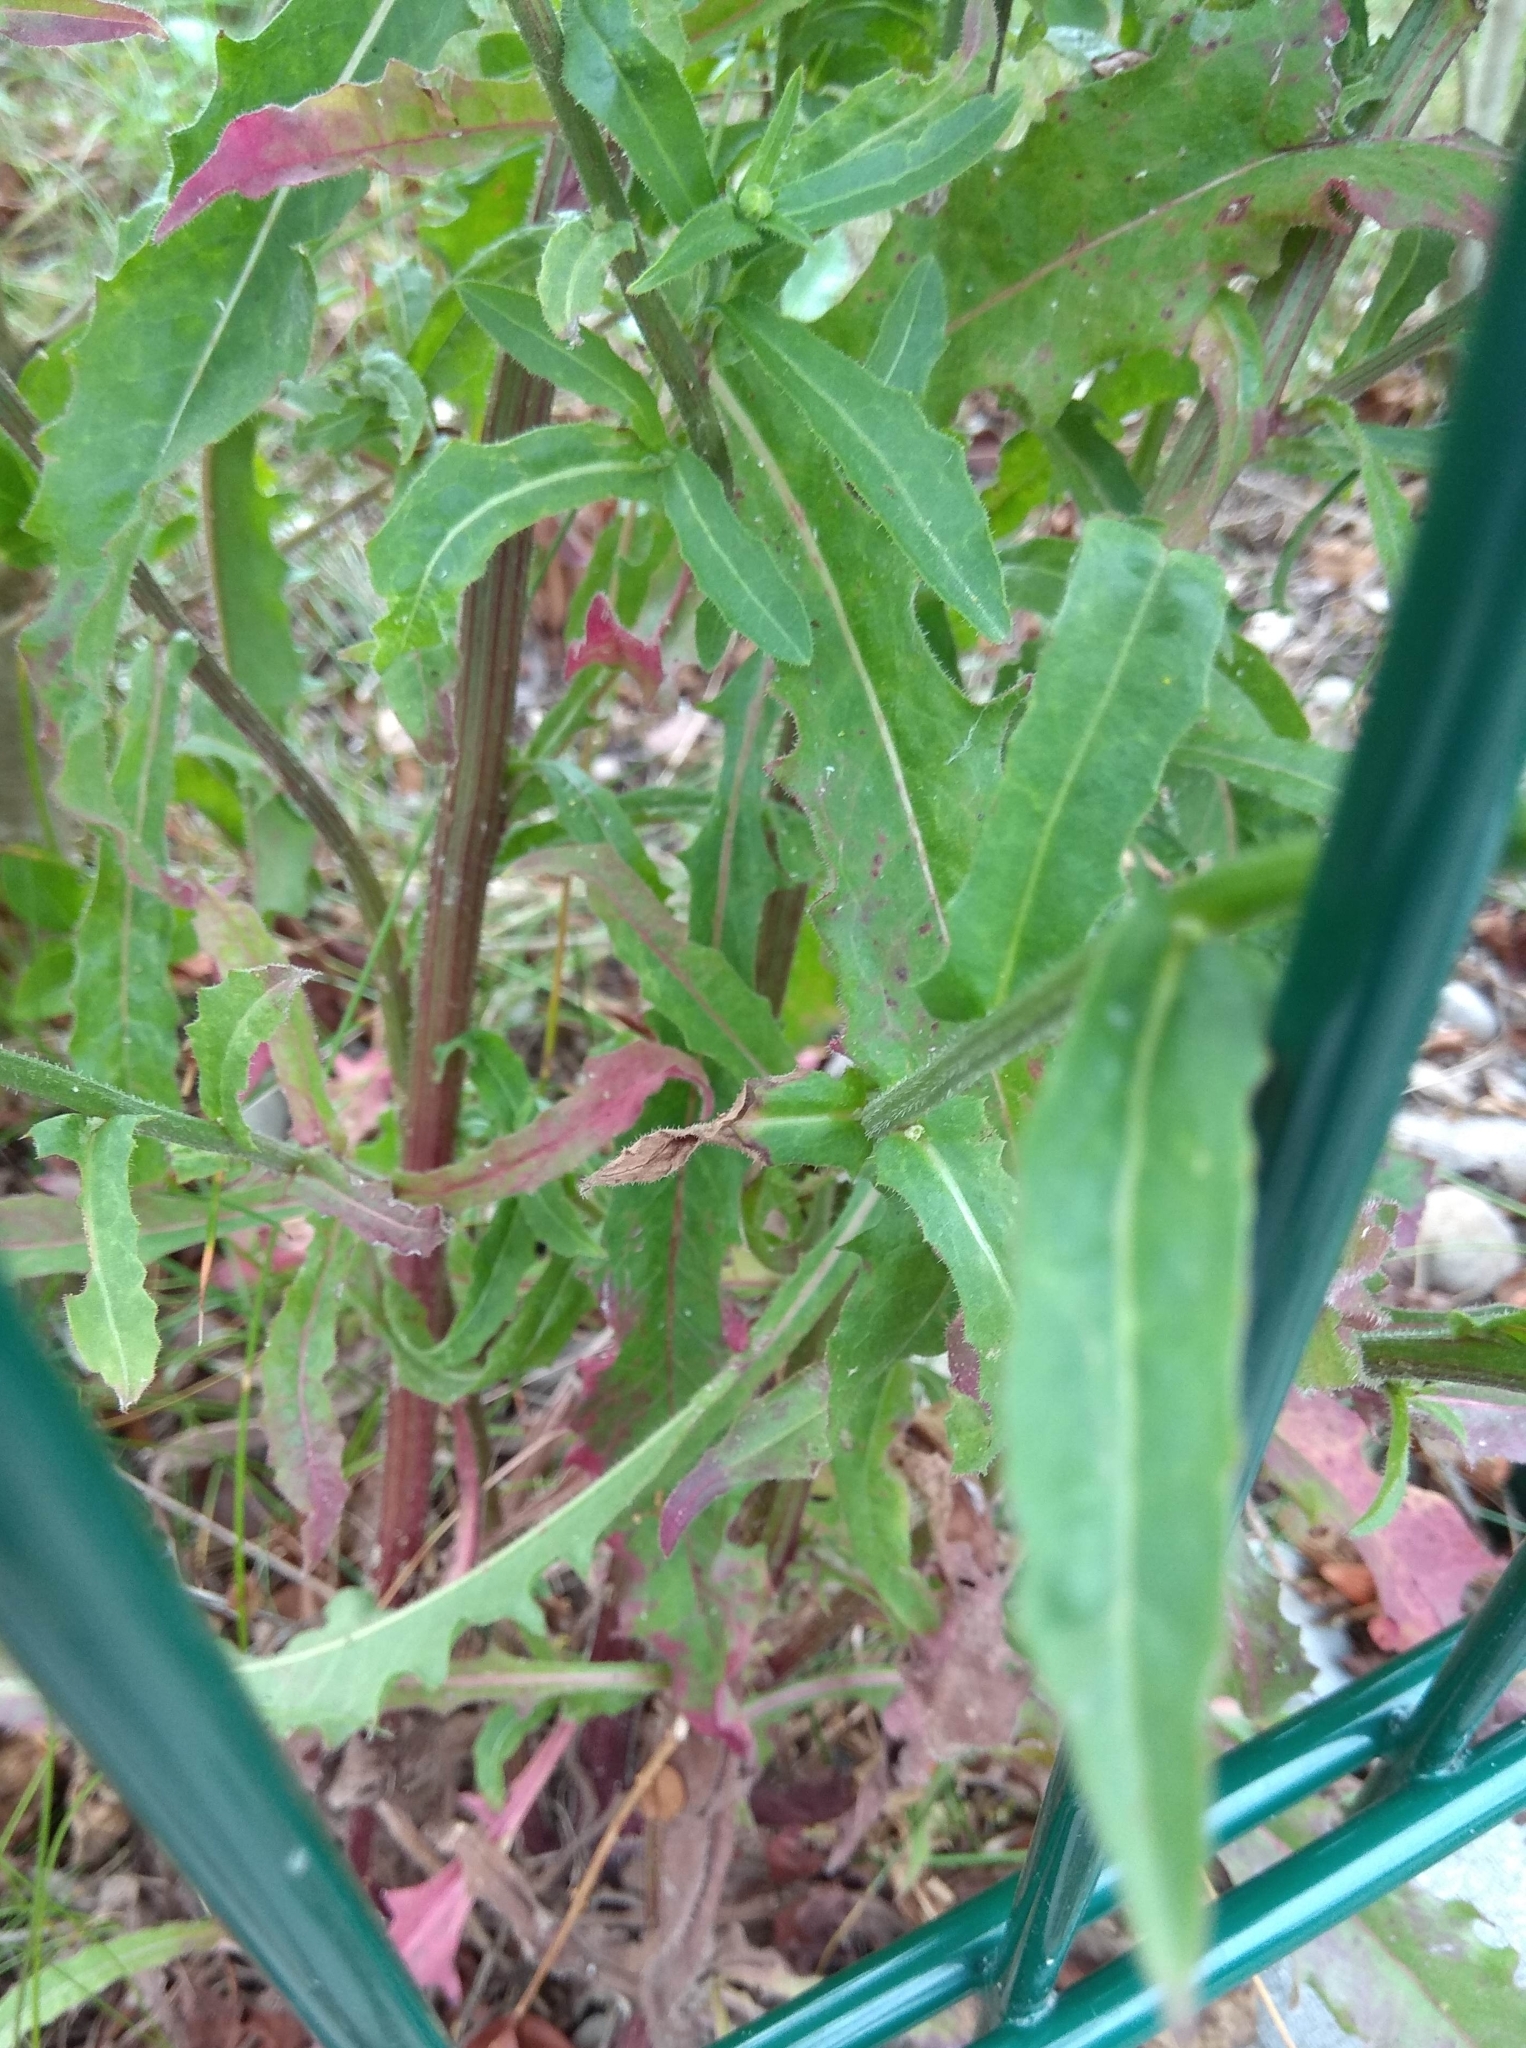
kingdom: Plantae
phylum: Tracheophyta
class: Magnoliopsida
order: Asterales
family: Asteraceae
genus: Picris
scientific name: Picris hieracioides
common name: Hawkweed oxtongue
